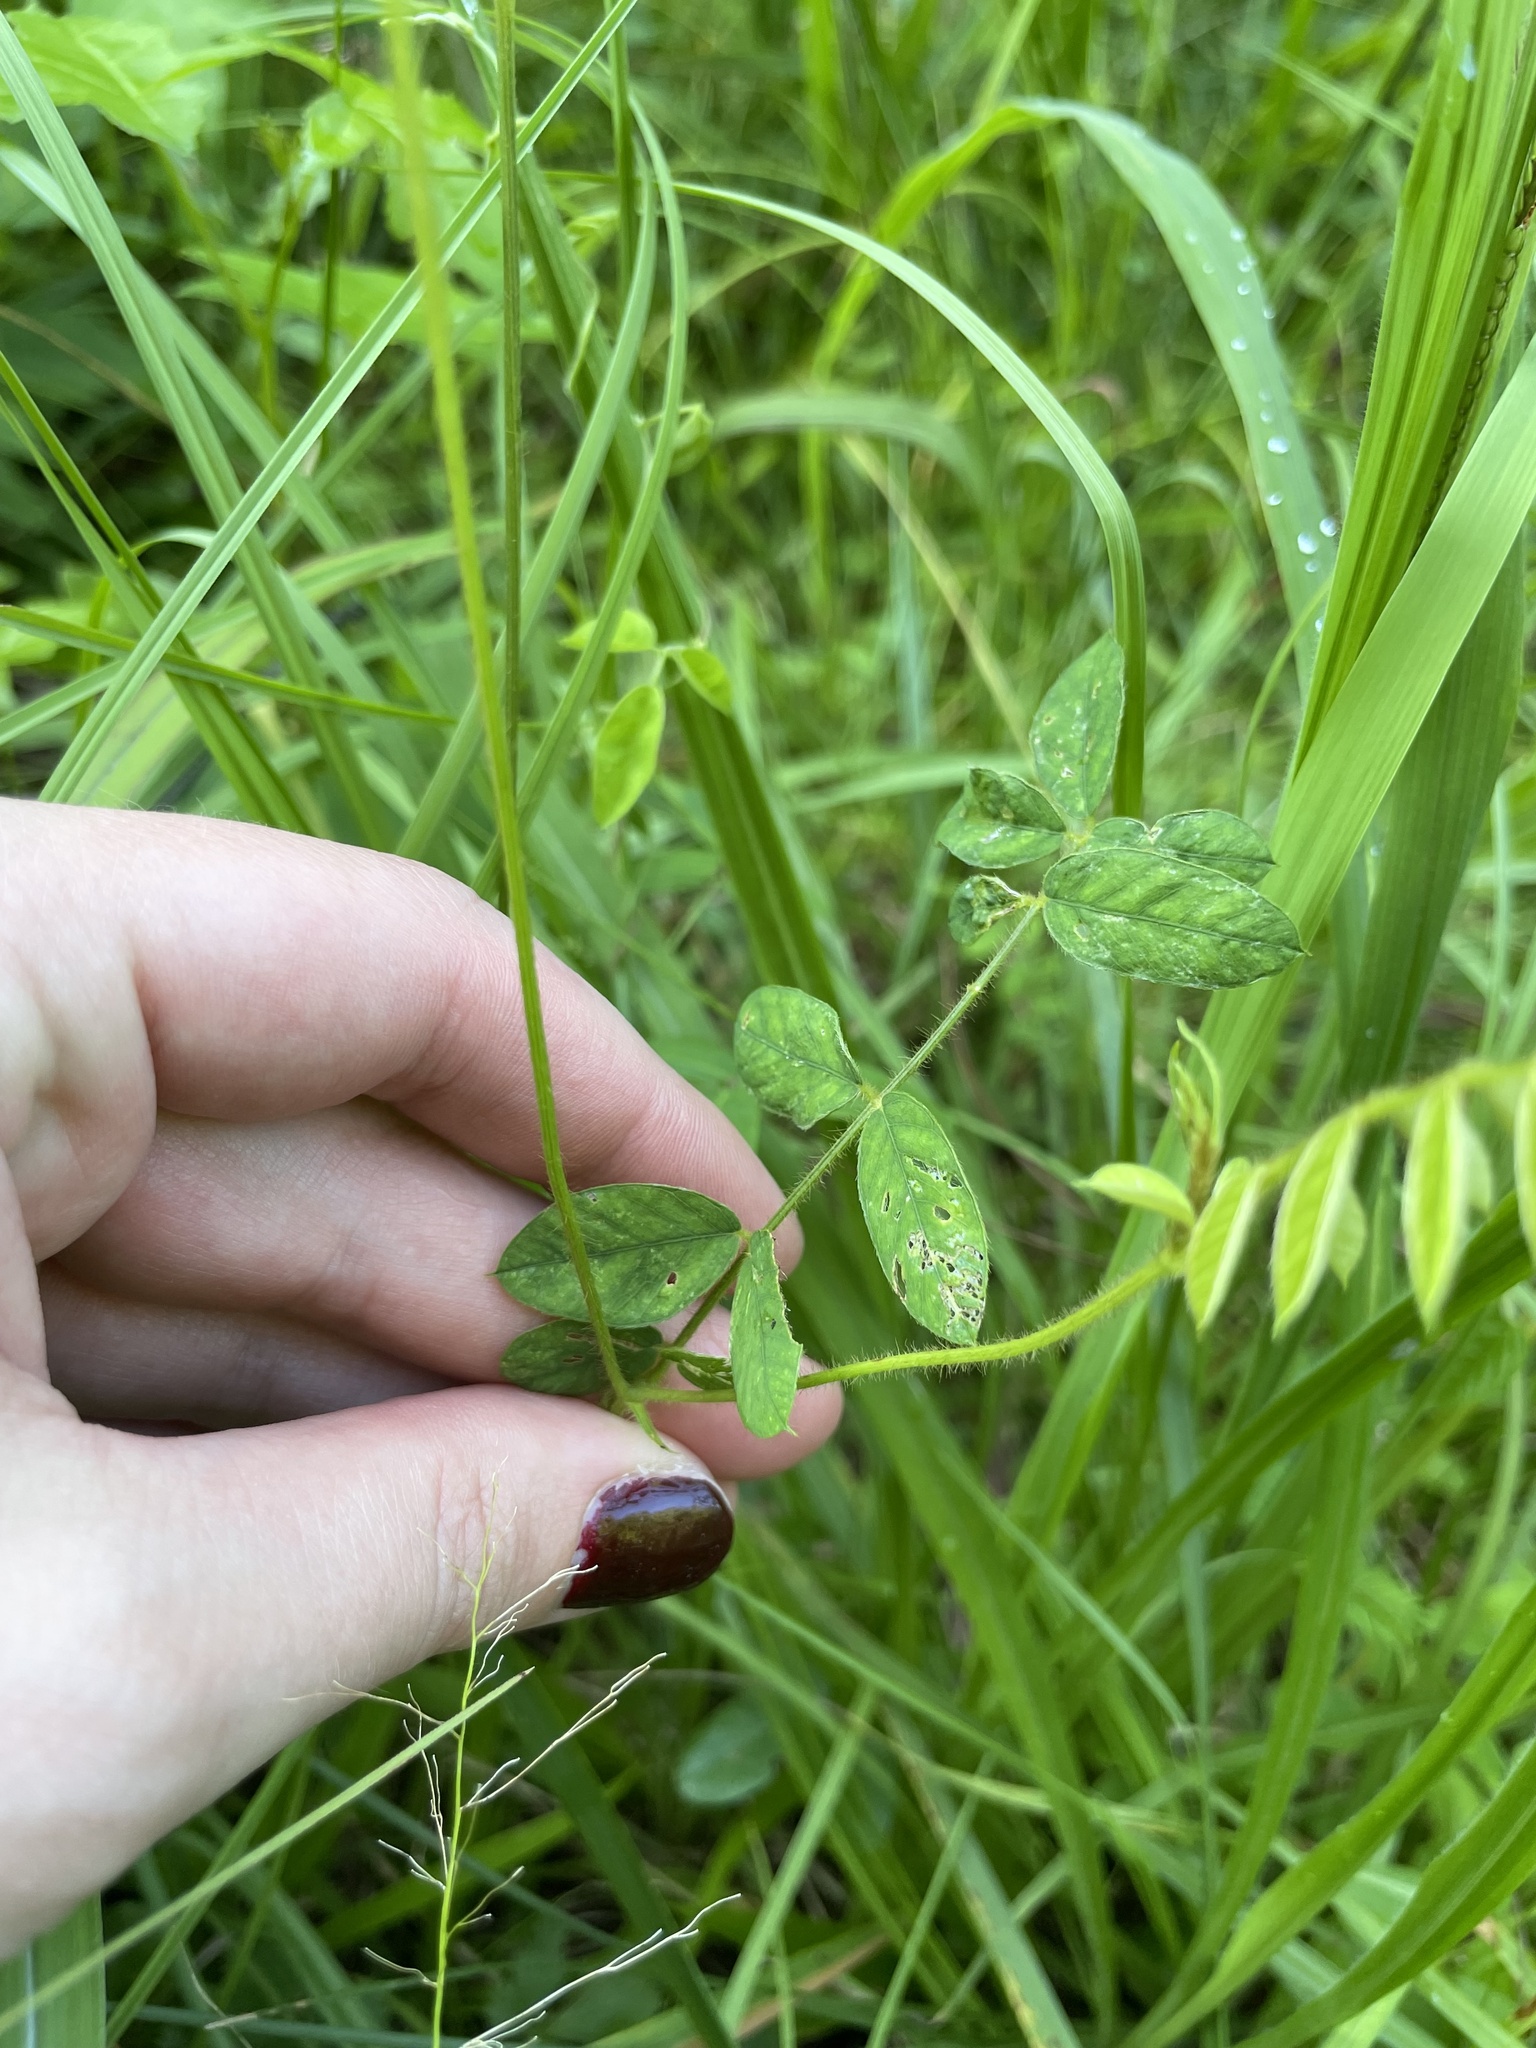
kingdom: Plantae
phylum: Tracheophyta
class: Magnoliopsida
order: Fabales
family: Fabaceae
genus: Tephrosia
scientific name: Tephrosia spicata
